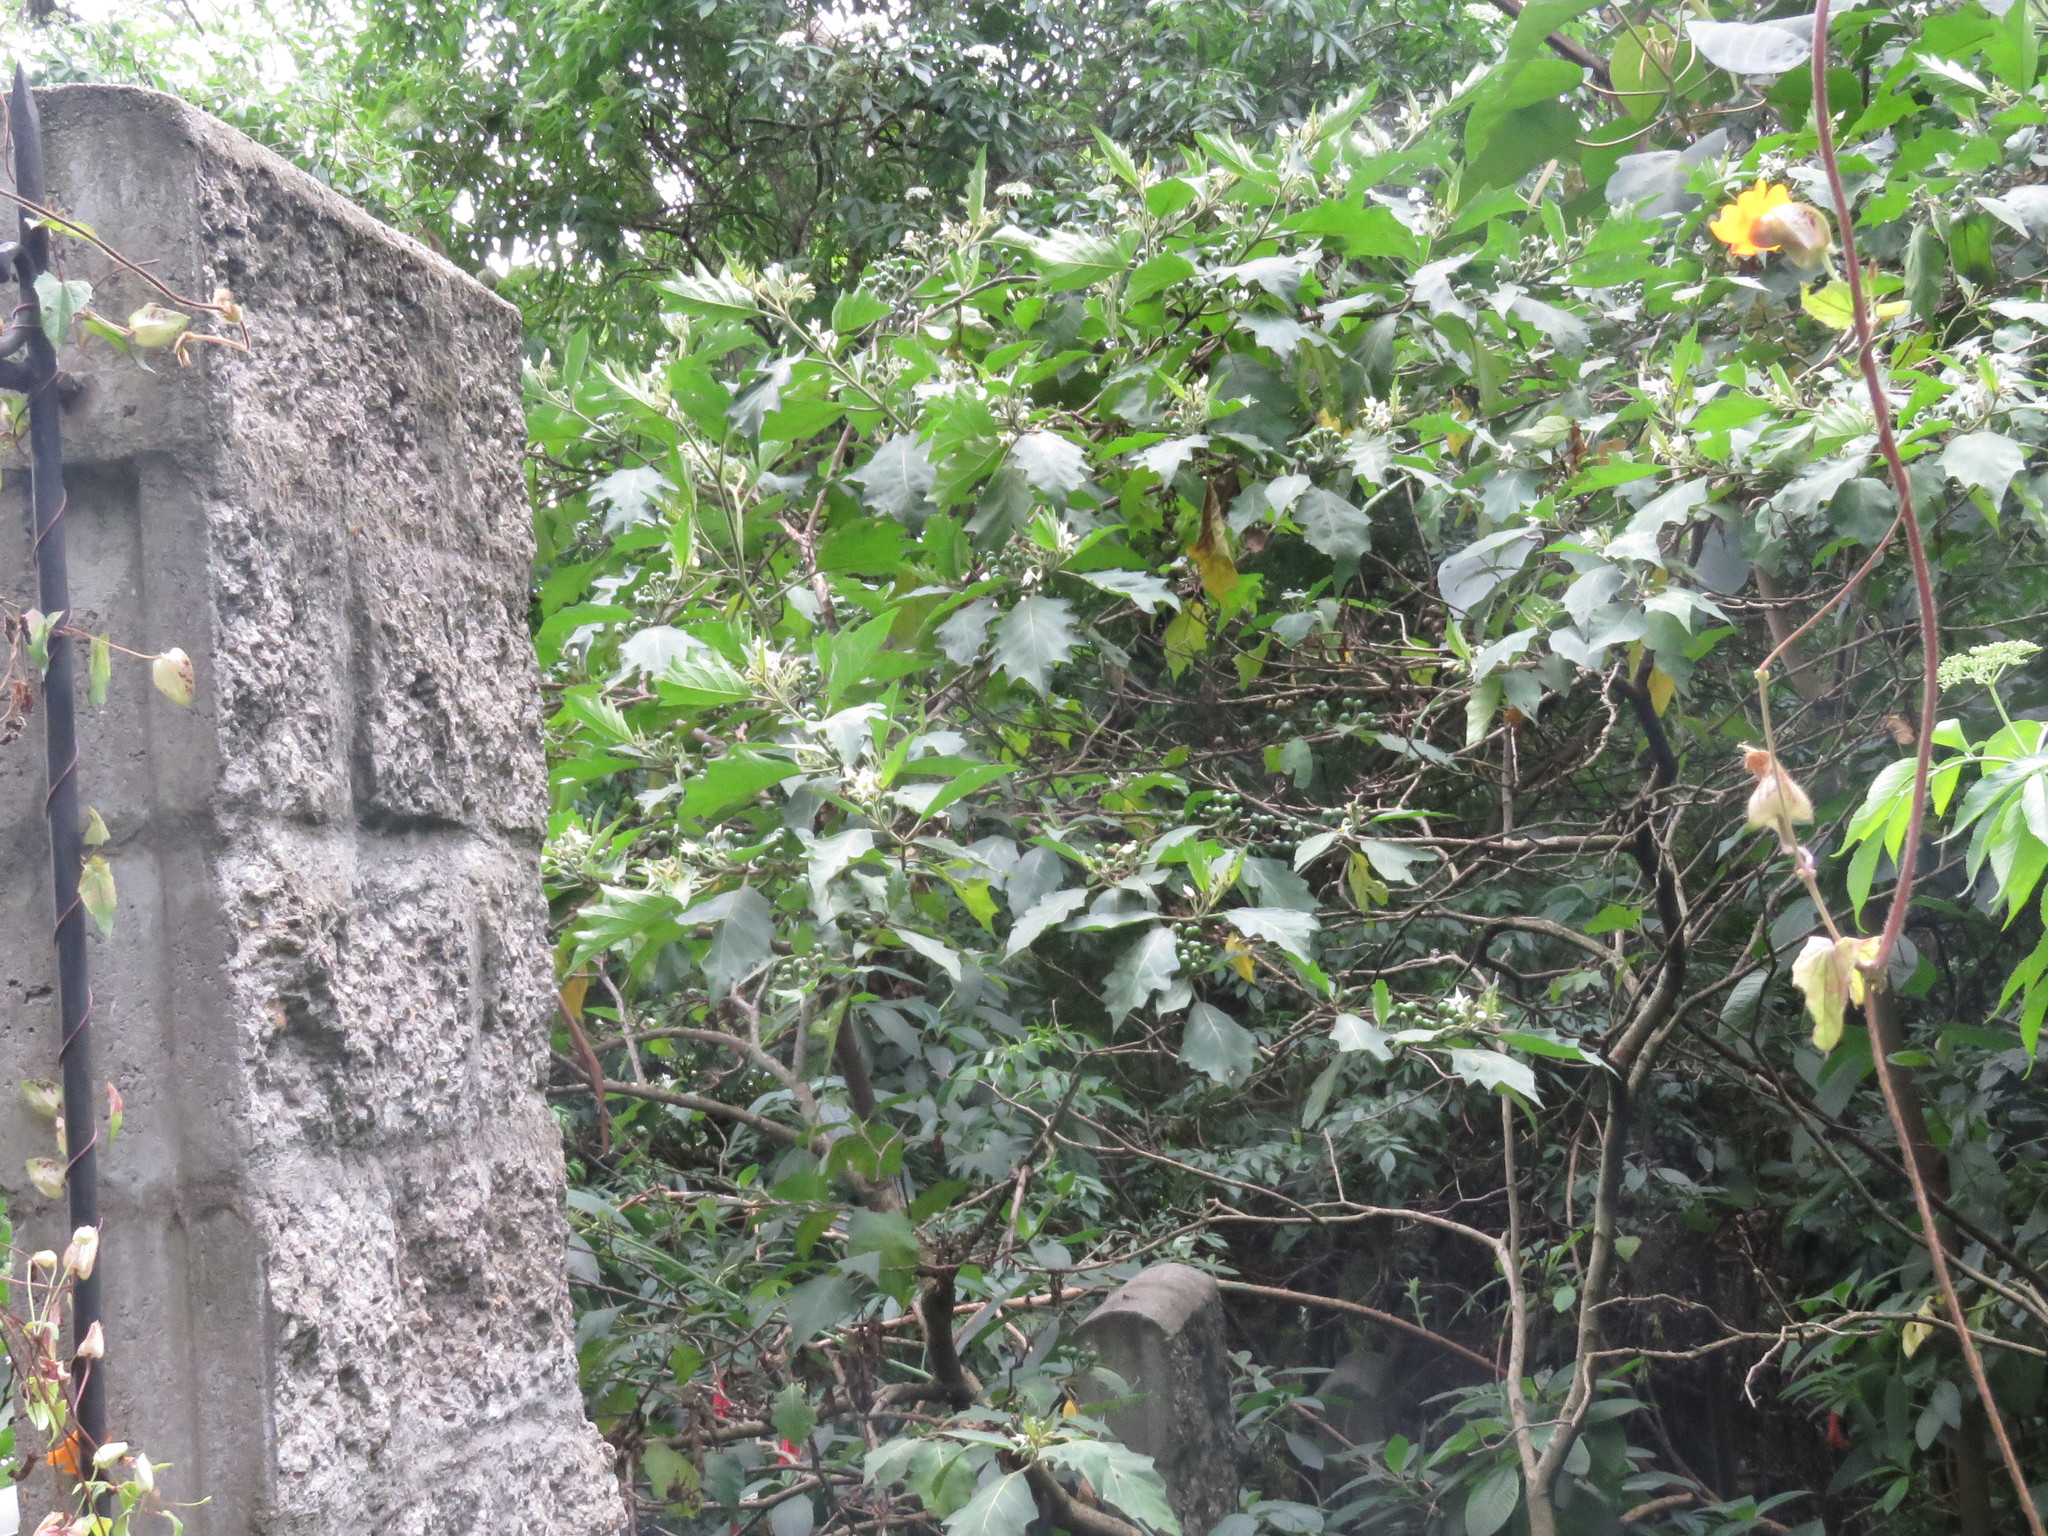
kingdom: Plantae
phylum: Tracheophyta
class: Magnoliopsida
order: Solanales
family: Solanaceae
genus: Solanum
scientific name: Solanum stellatiglandulosum
